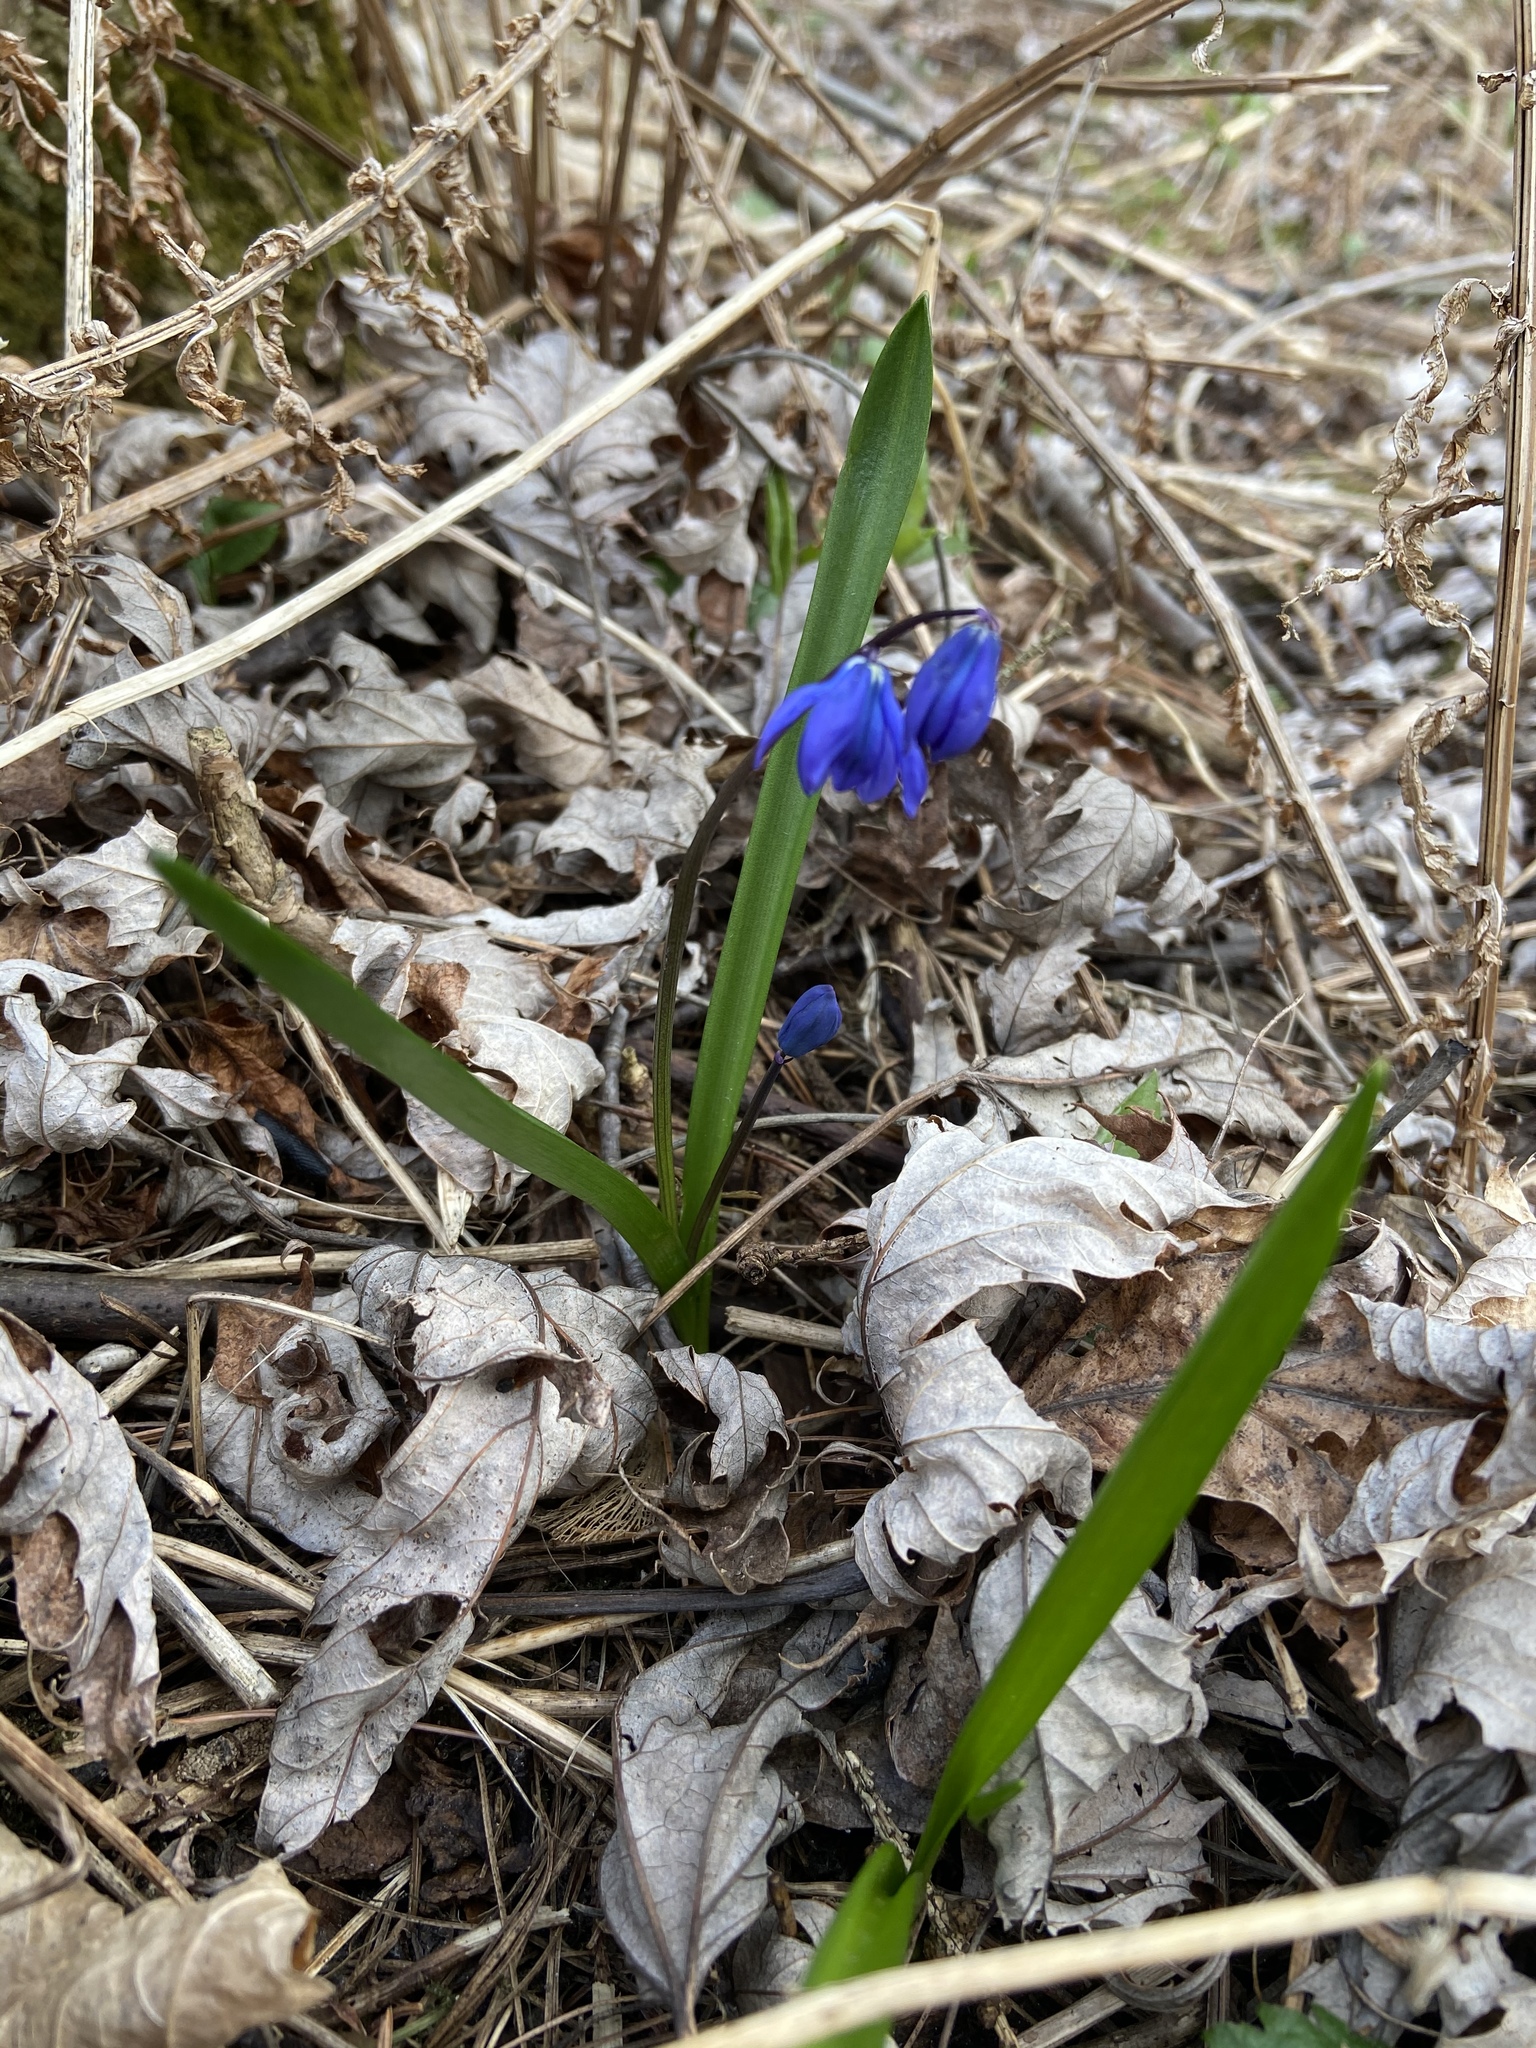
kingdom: Plantae
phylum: Tracheophyta
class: Liliopsida
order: Asparagales
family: Asparagaceae
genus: Scilla
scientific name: Scilla siberica
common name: Siberian squill
